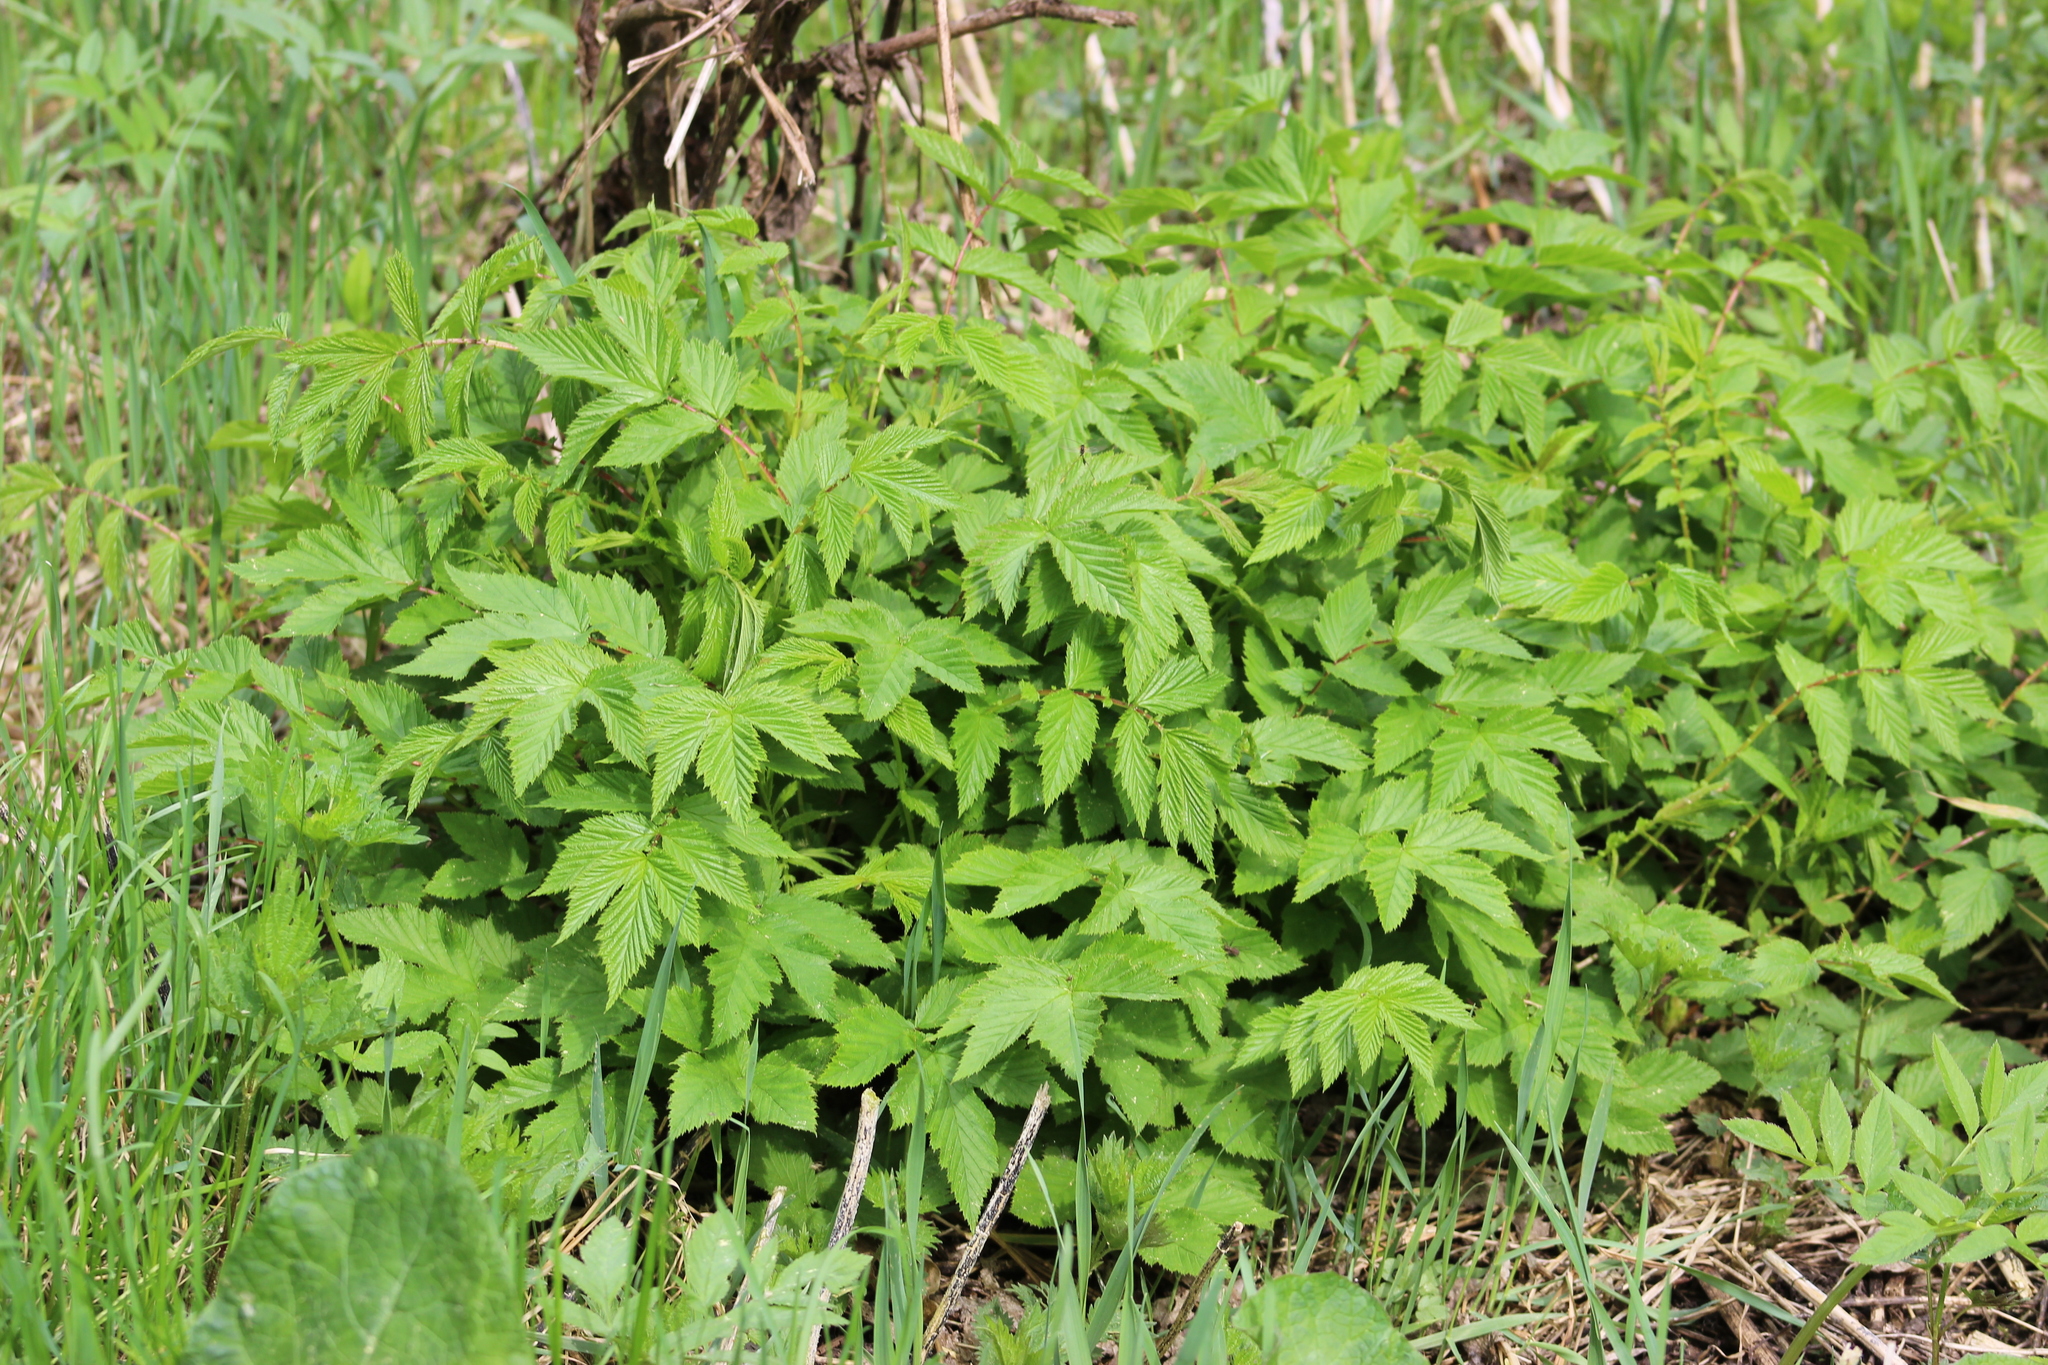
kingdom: Plantae
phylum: Tracheophyta
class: Magnoliopsida
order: Rosales
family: Rosaceae
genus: Filipendula
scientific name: Filipendula ulmaria
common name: Meadowsweet
